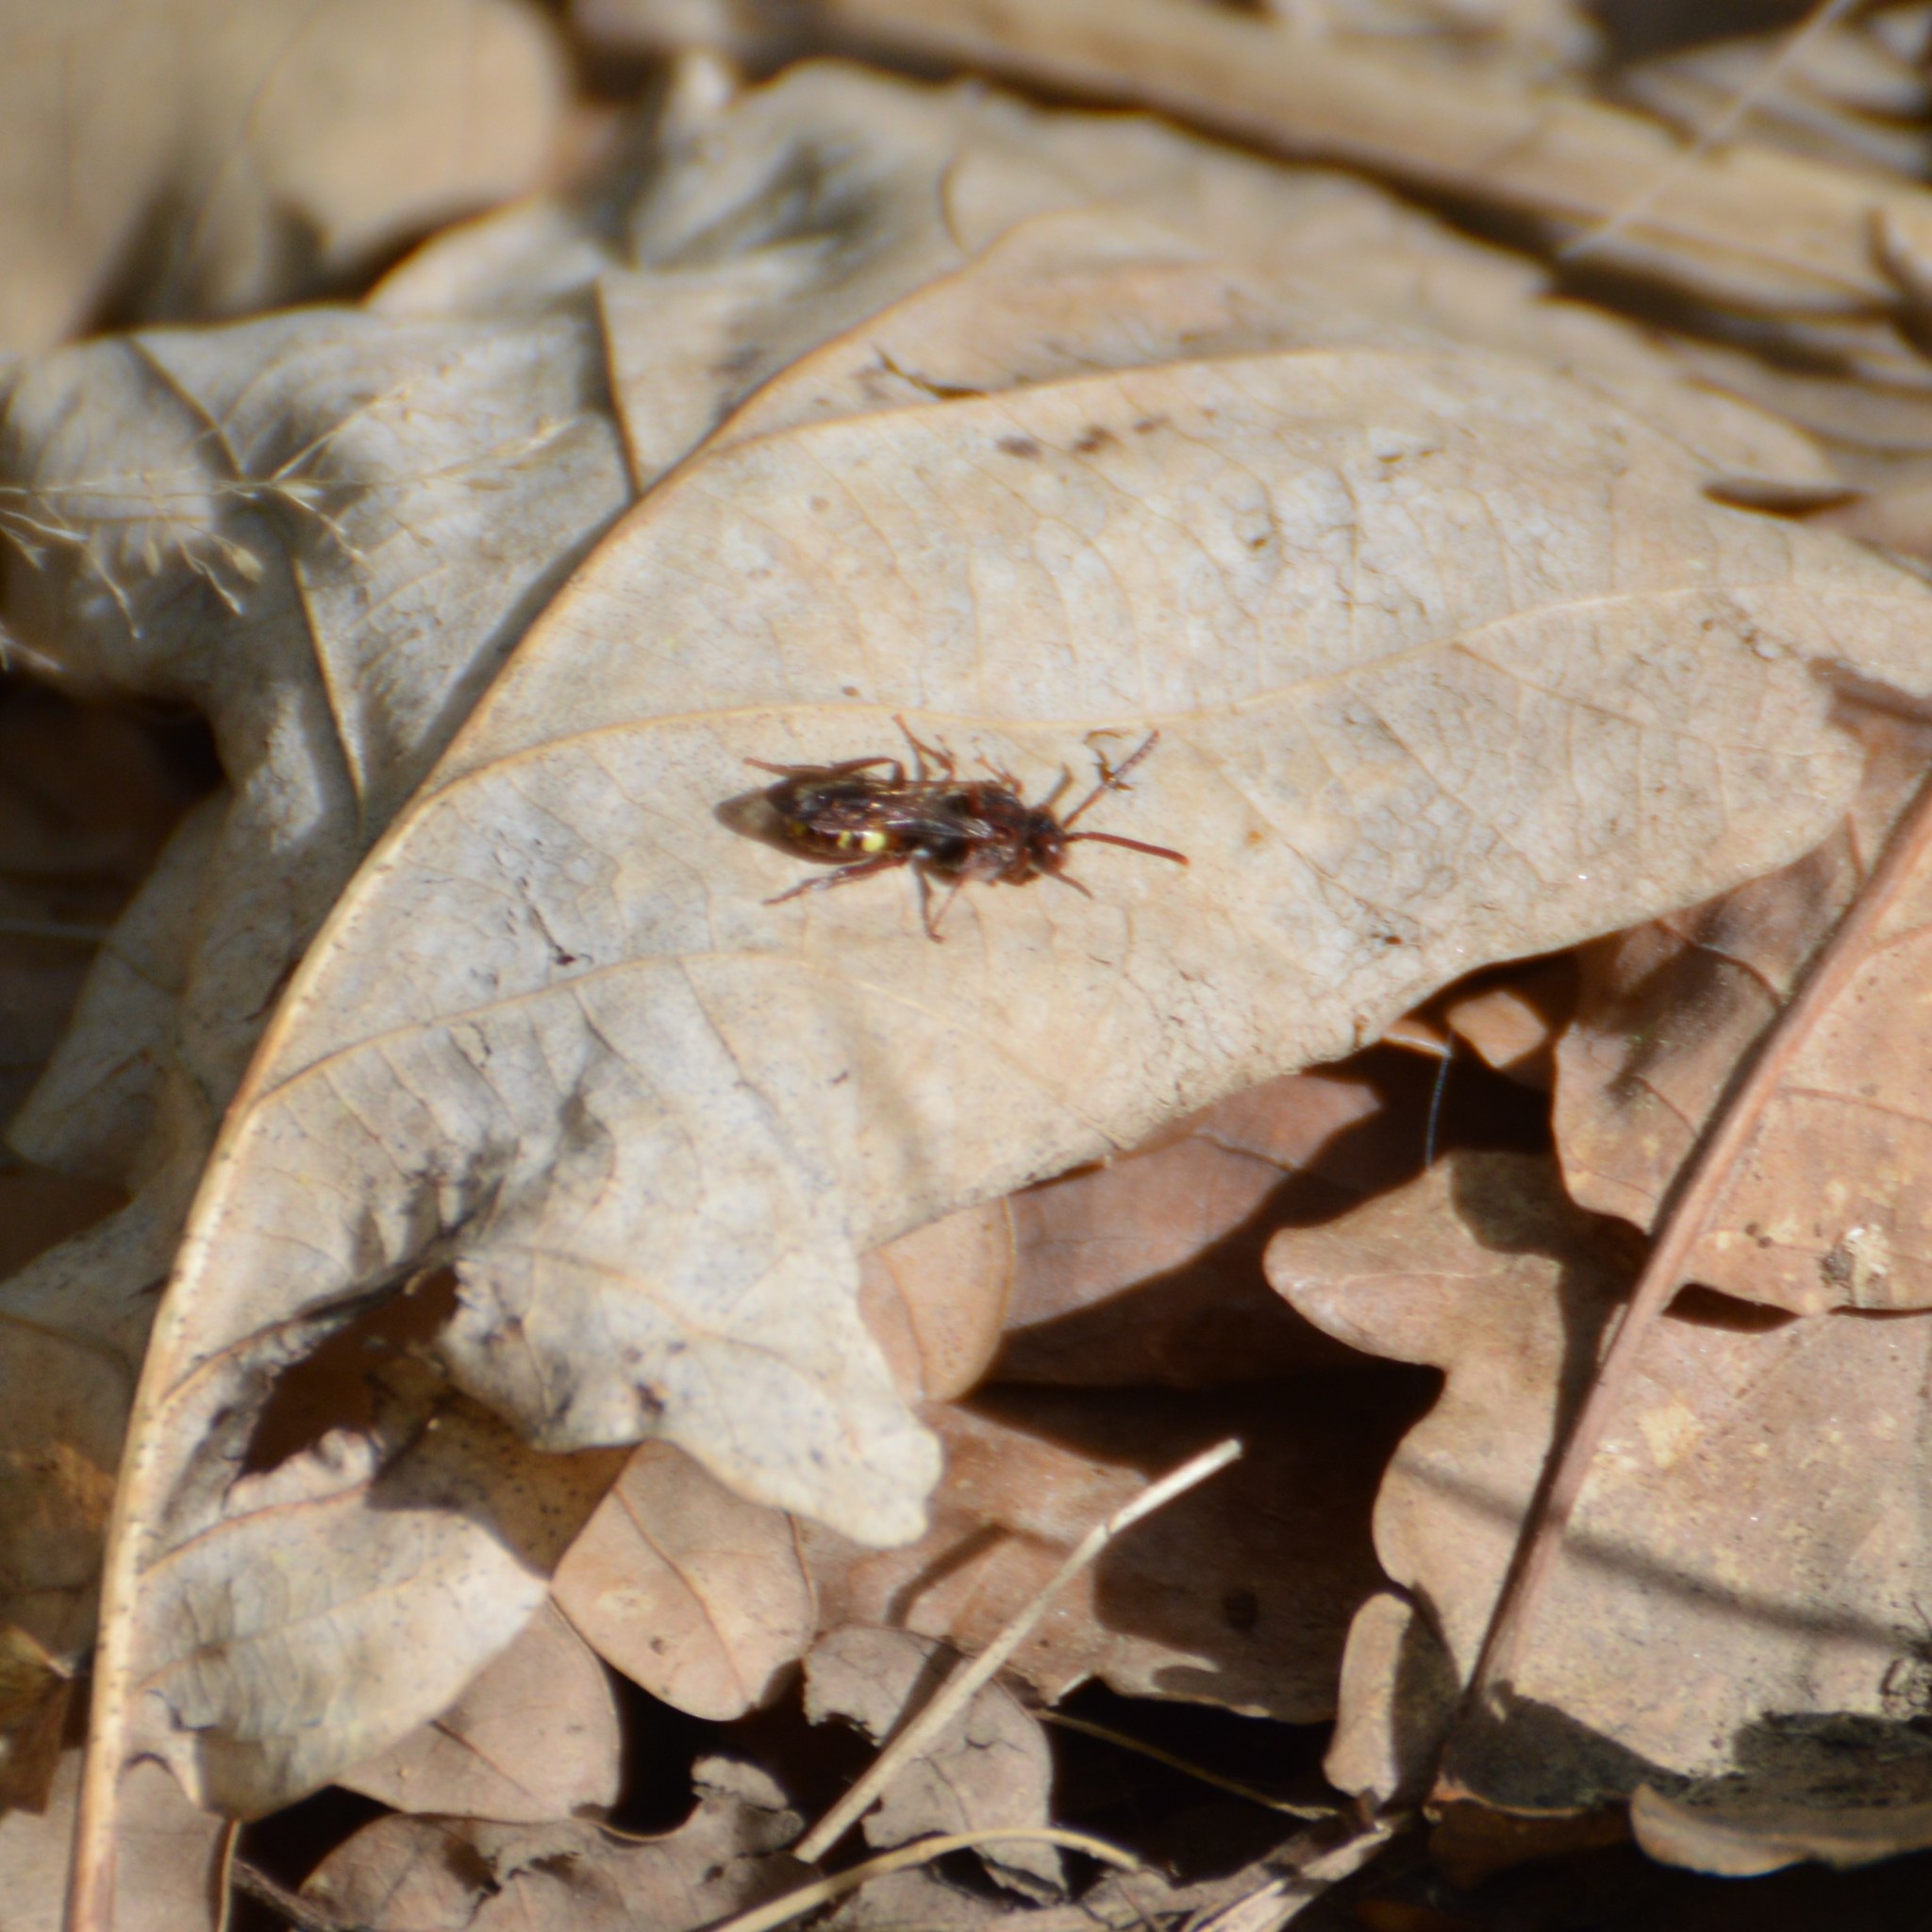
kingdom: Animalia
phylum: Arthropoda
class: Insecta
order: Hymenoptera
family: Apidae
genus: Nomada
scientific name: Nomada
